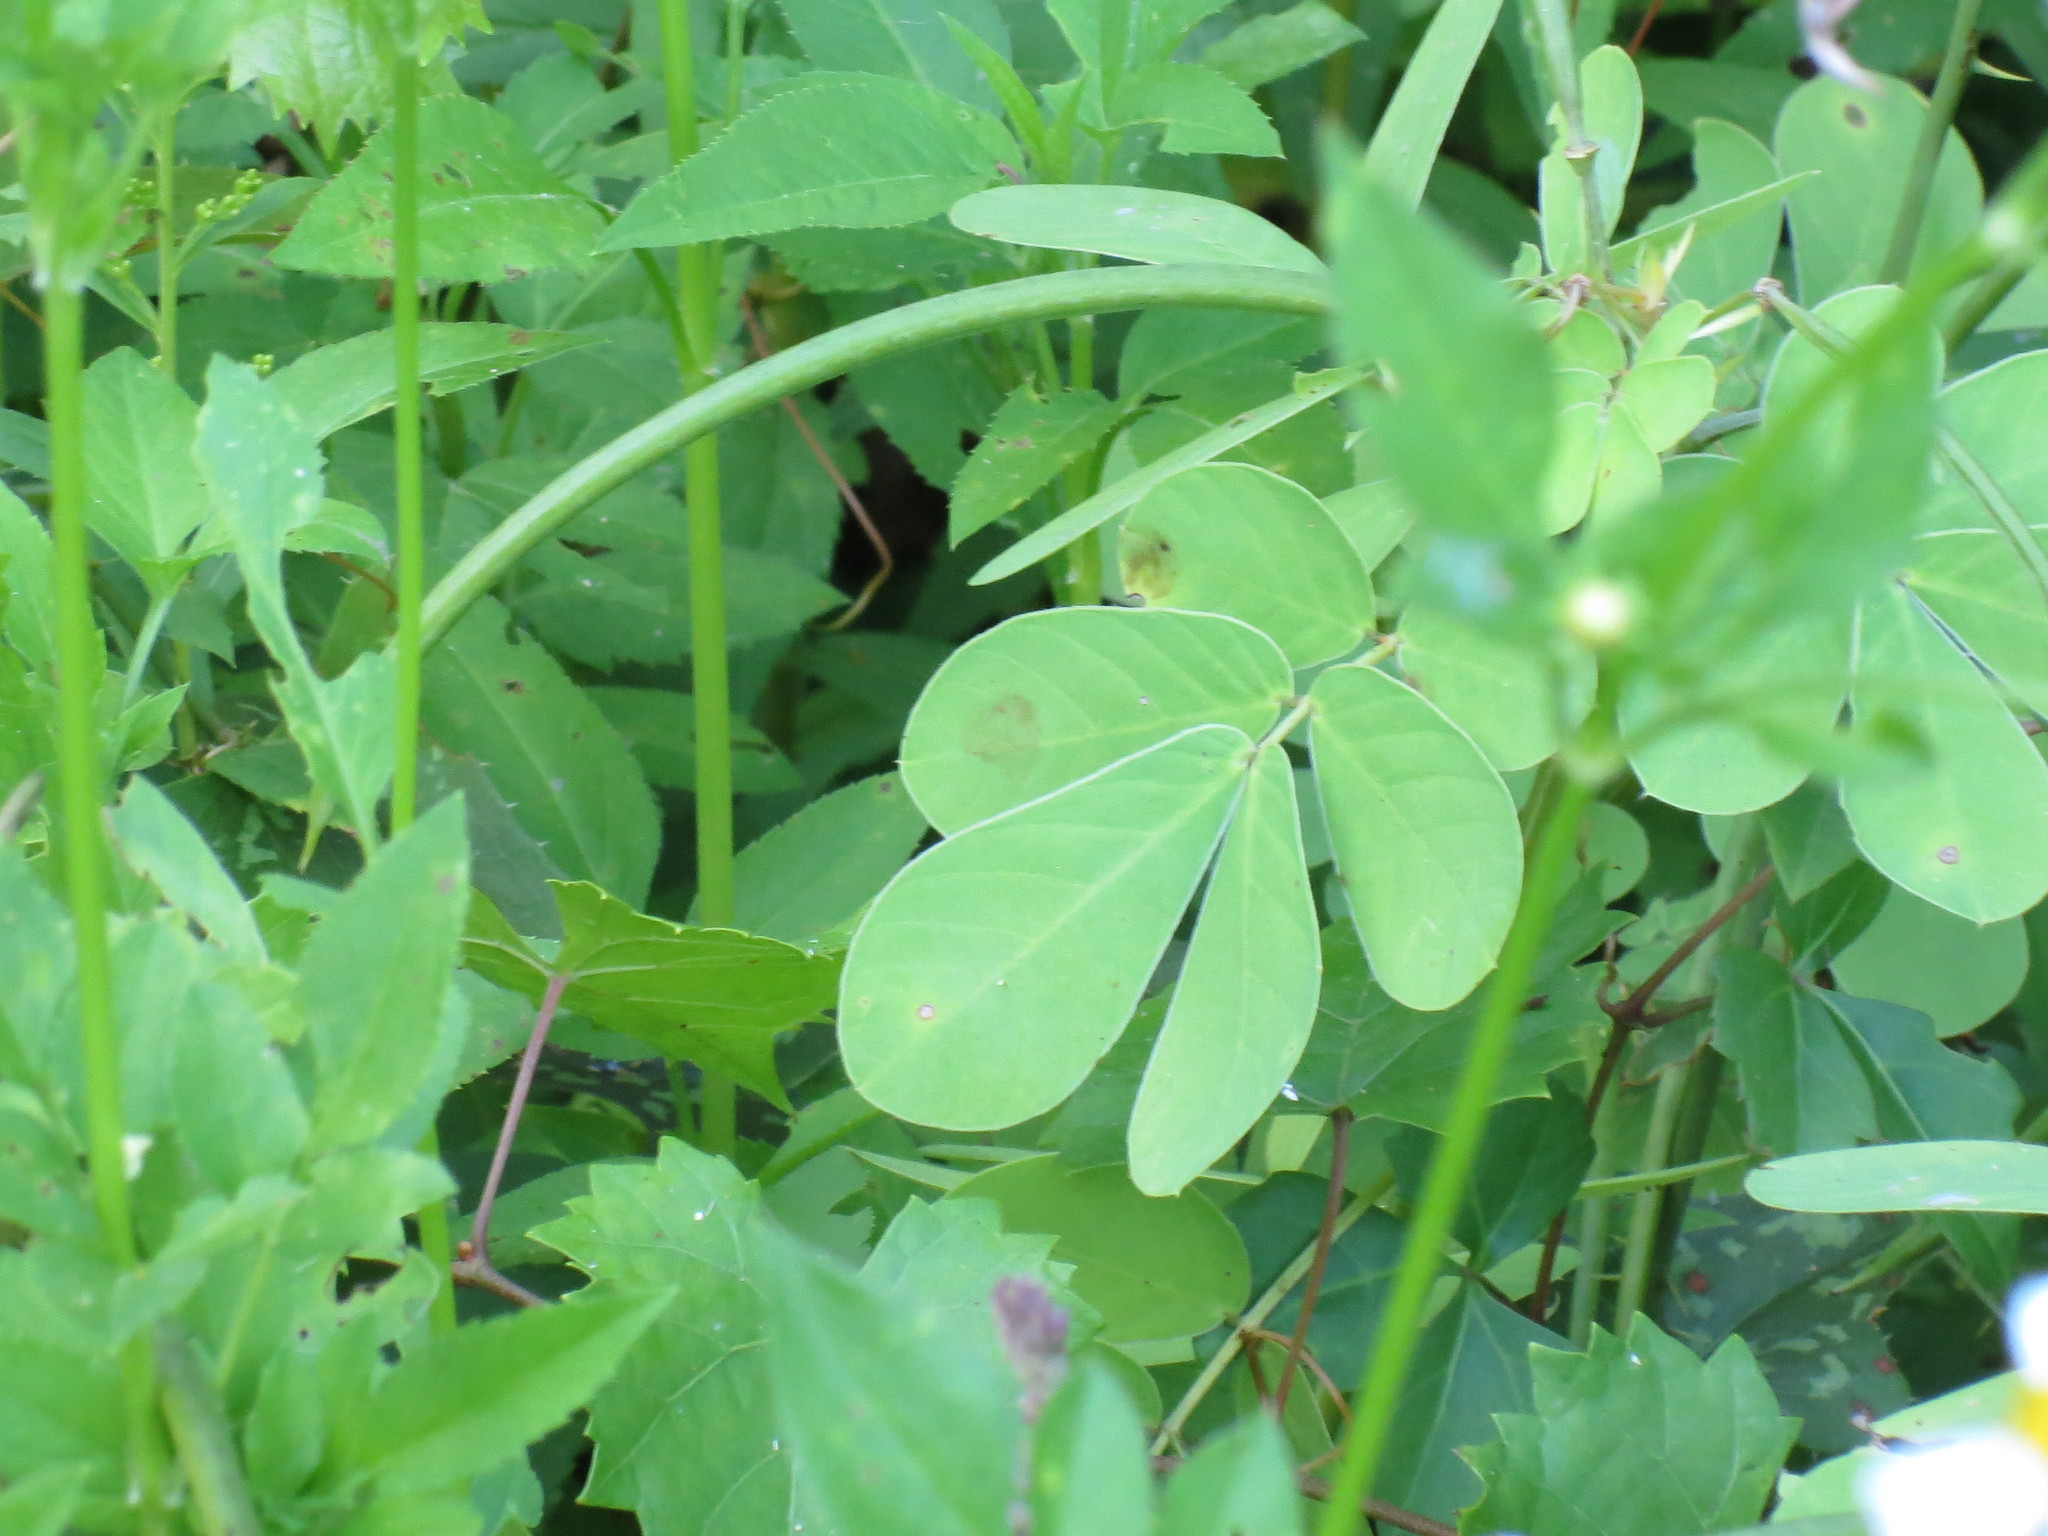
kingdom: Plantae
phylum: Tracheophyta
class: Magnoliopsida
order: Fabales
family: Fabaceae
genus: Senna
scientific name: Senna obtusifolia
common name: Java-bean
